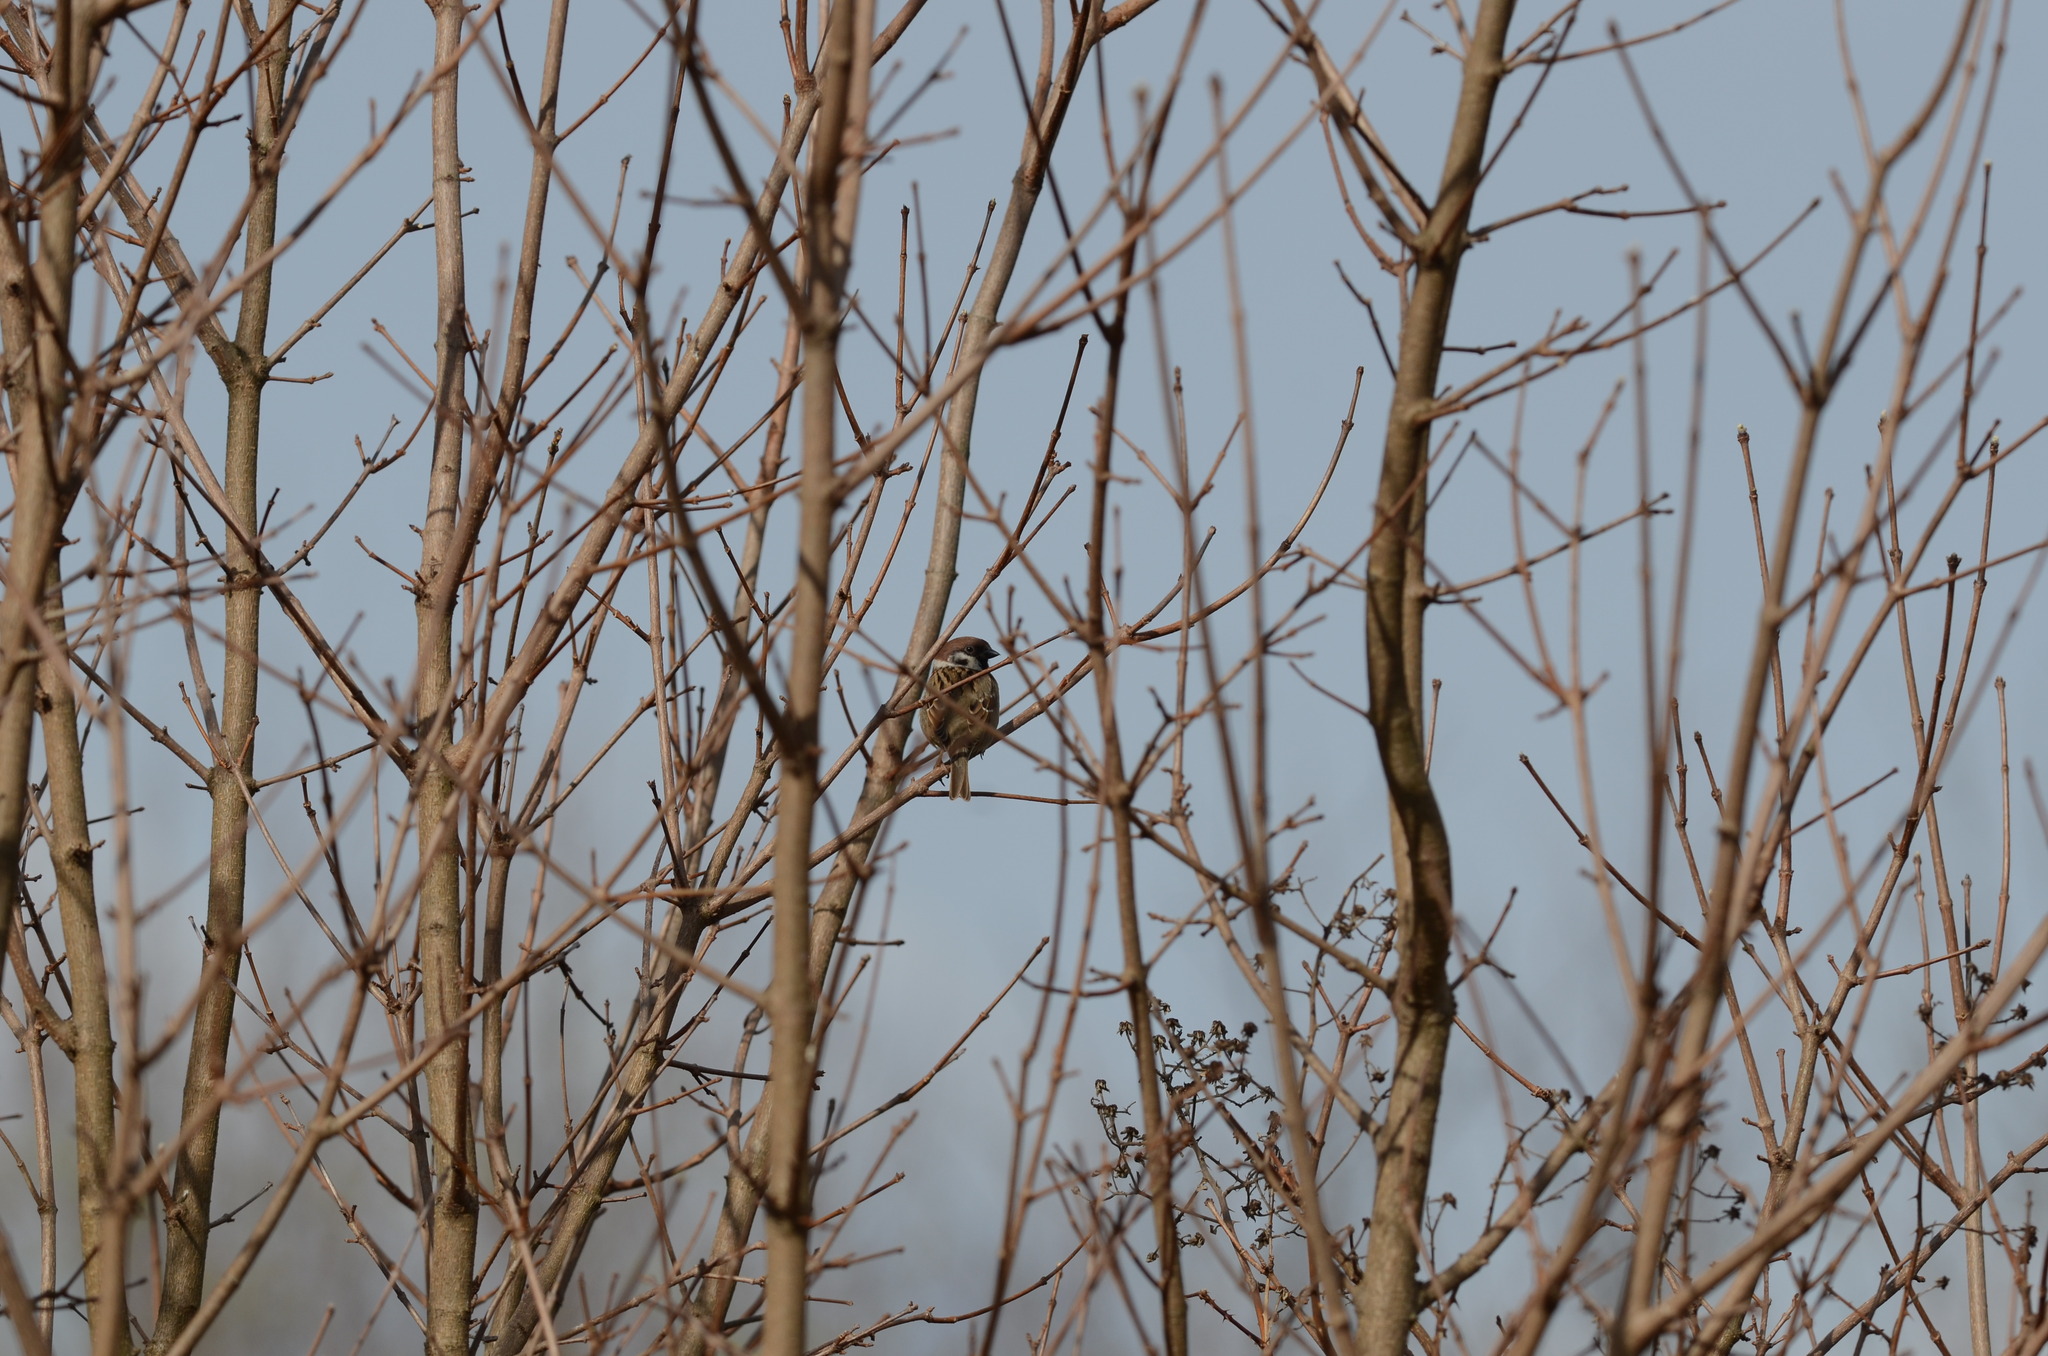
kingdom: Animalia
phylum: Chordata
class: Aves
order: Passeriformes
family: Passeridae
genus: Passer
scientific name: Passer montanus
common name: Eurasian tree sparrow
